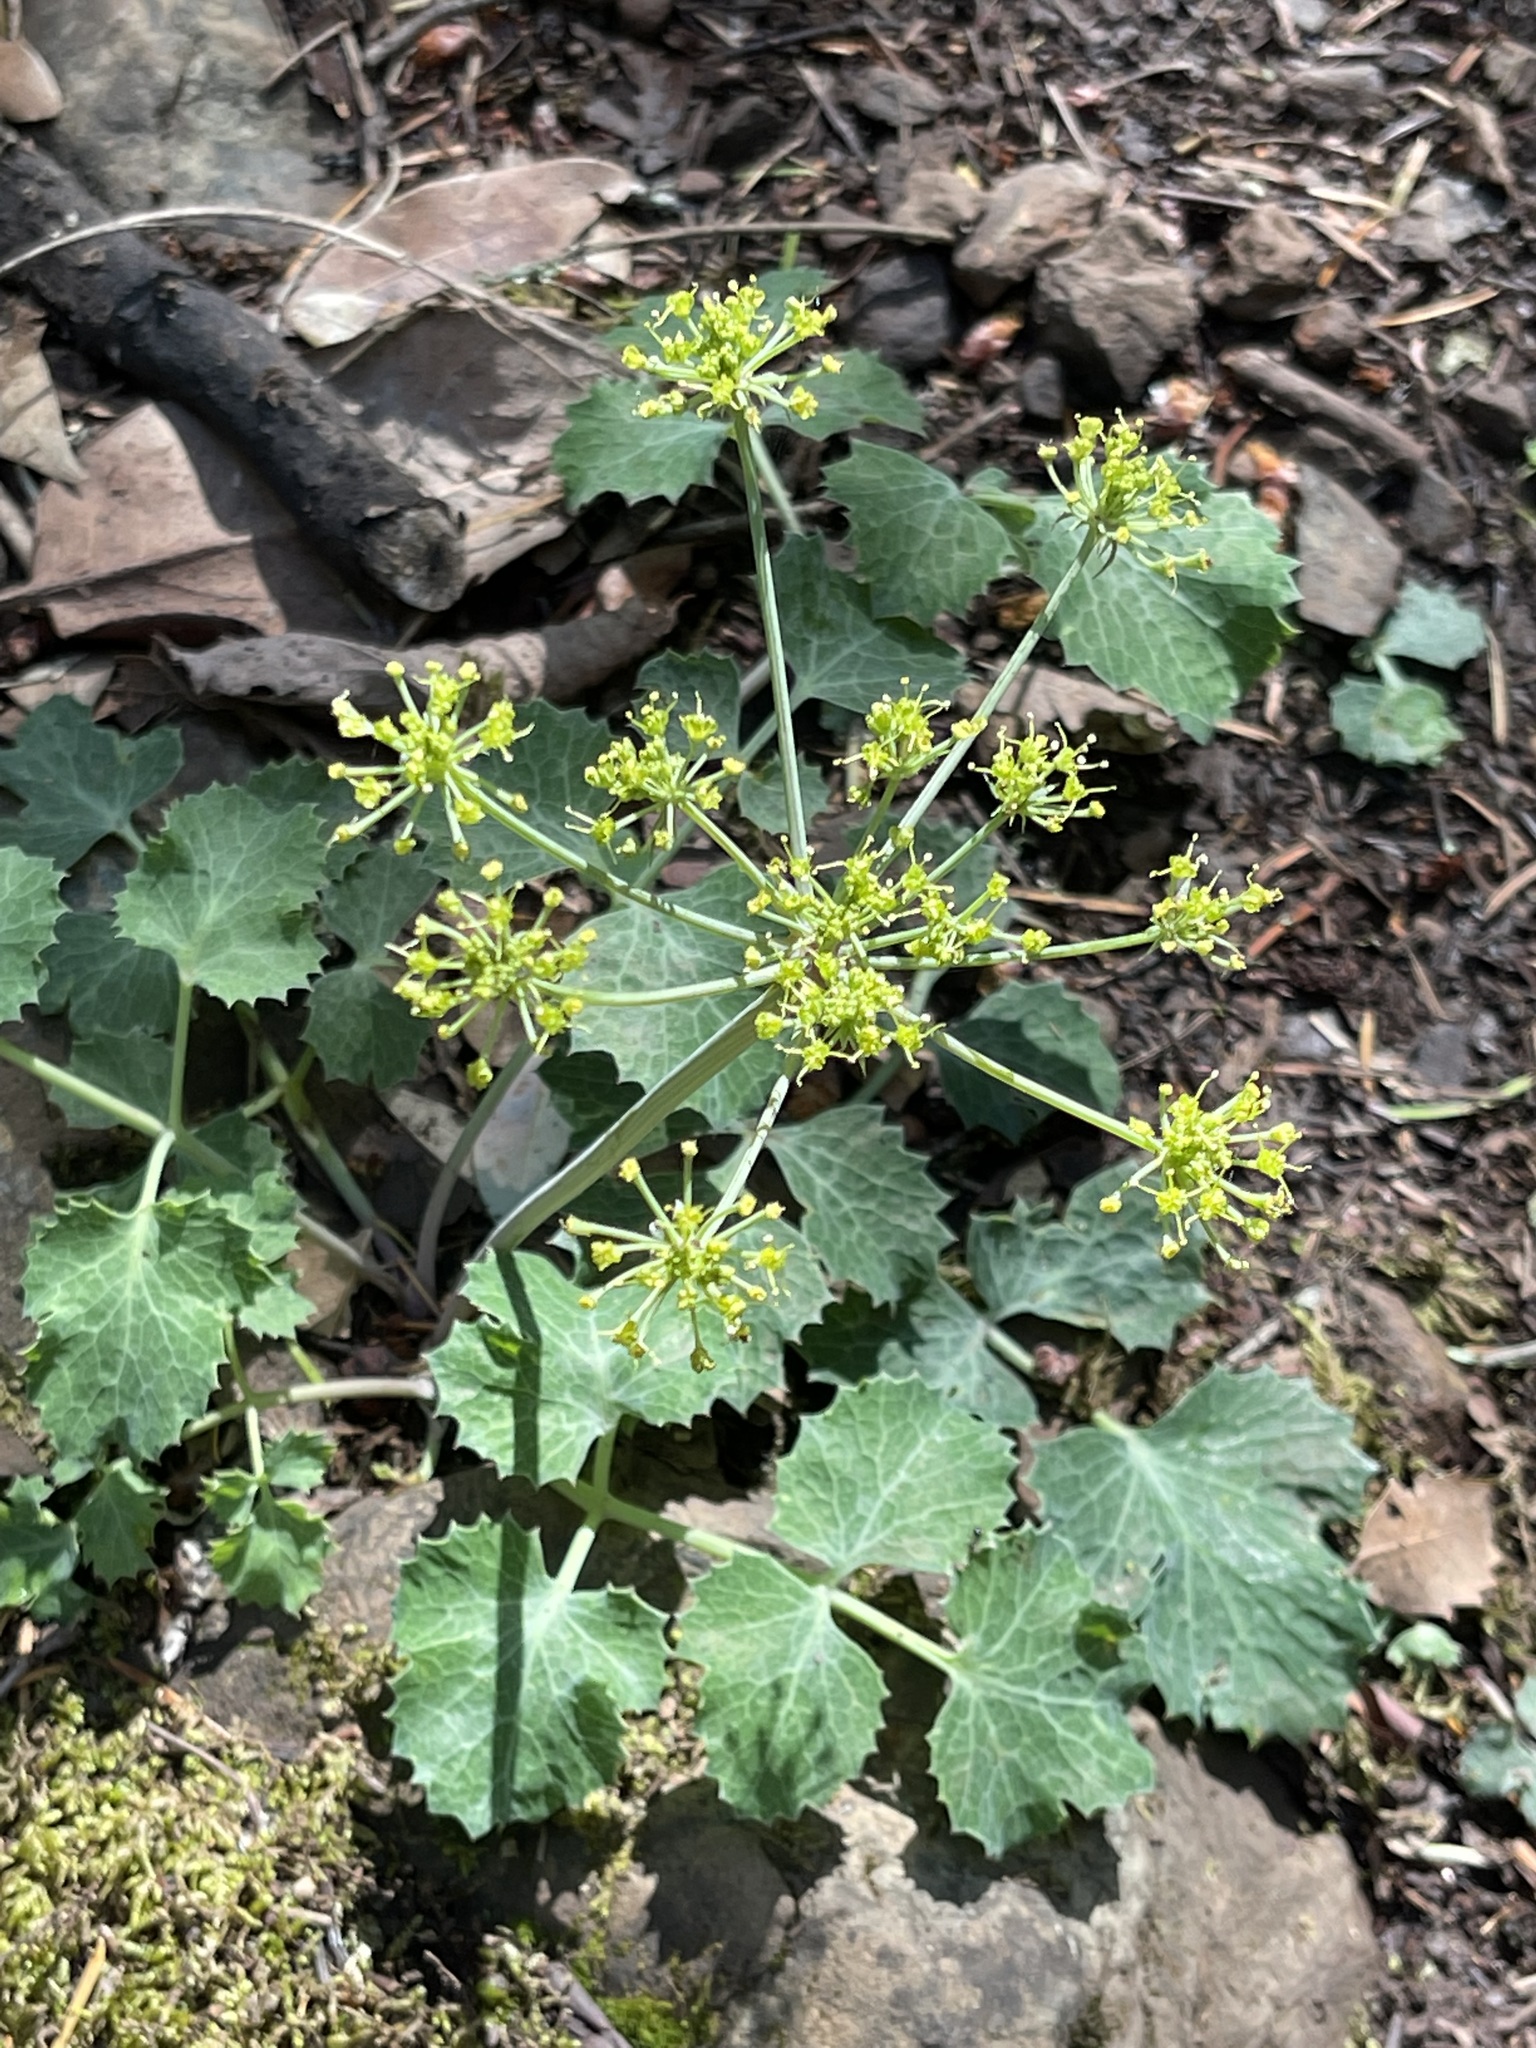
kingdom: Plantae
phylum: Tracheophyta
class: Magnoliopsida
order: Apiales
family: Apiaceae
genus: Lomatium
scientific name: Lomatium repostum
